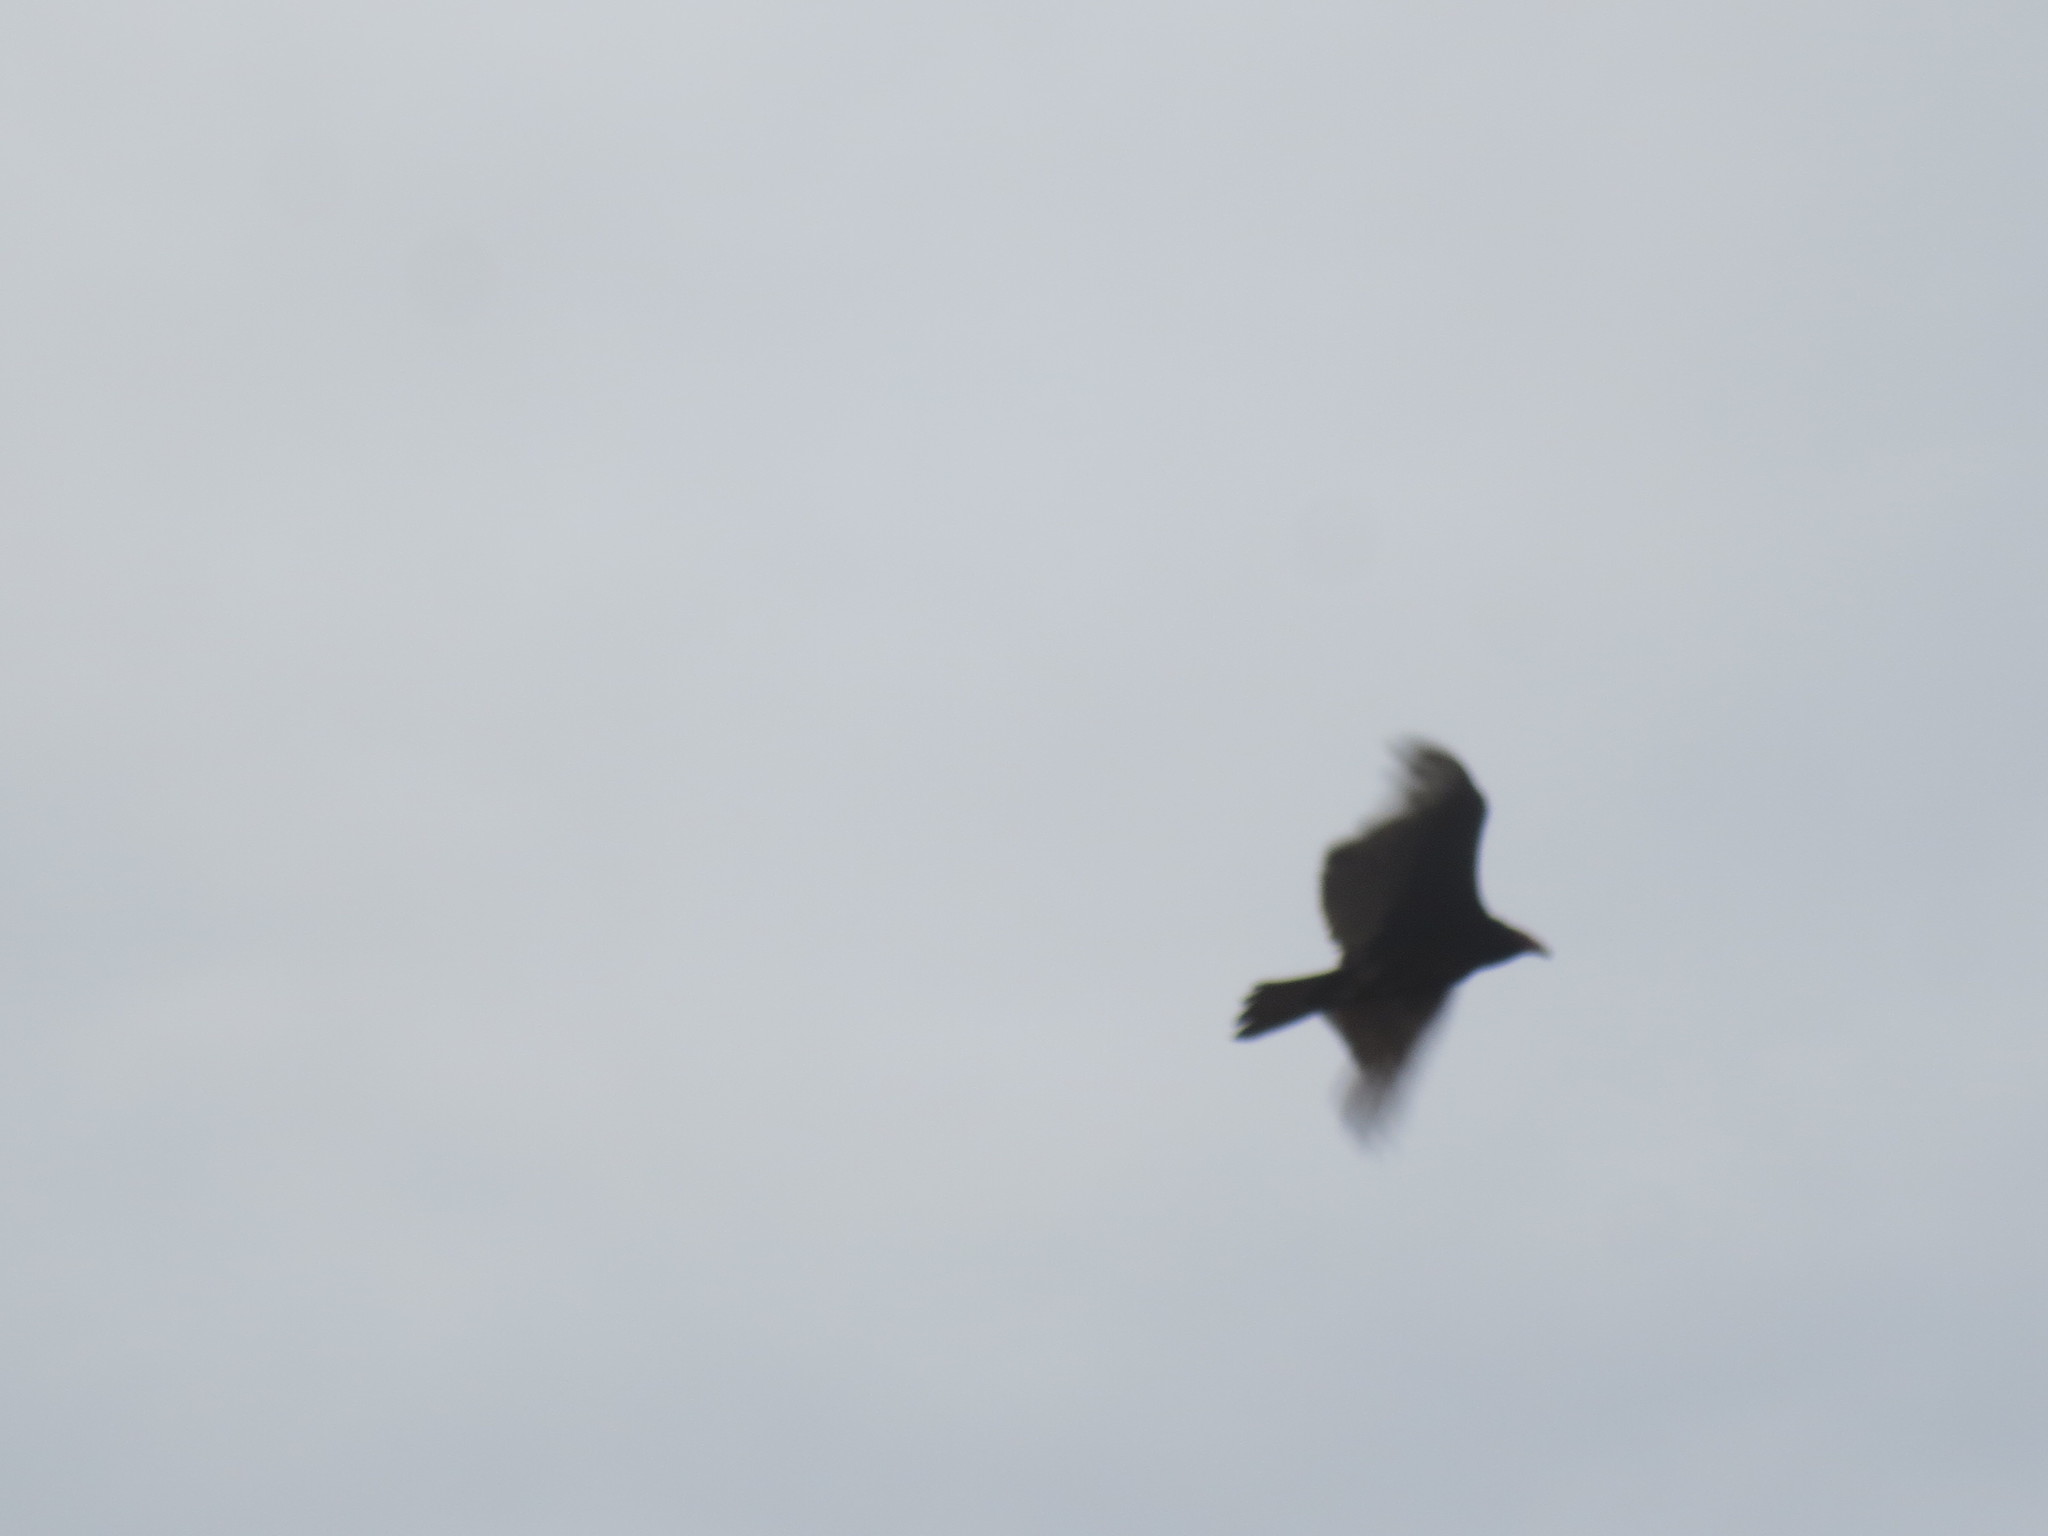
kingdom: Animalia
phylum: Chordata
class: Aves
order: Accipitriformes
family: Cathartidae
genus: Cathartes
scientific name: Cathartes aura
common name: Turkey vulture
